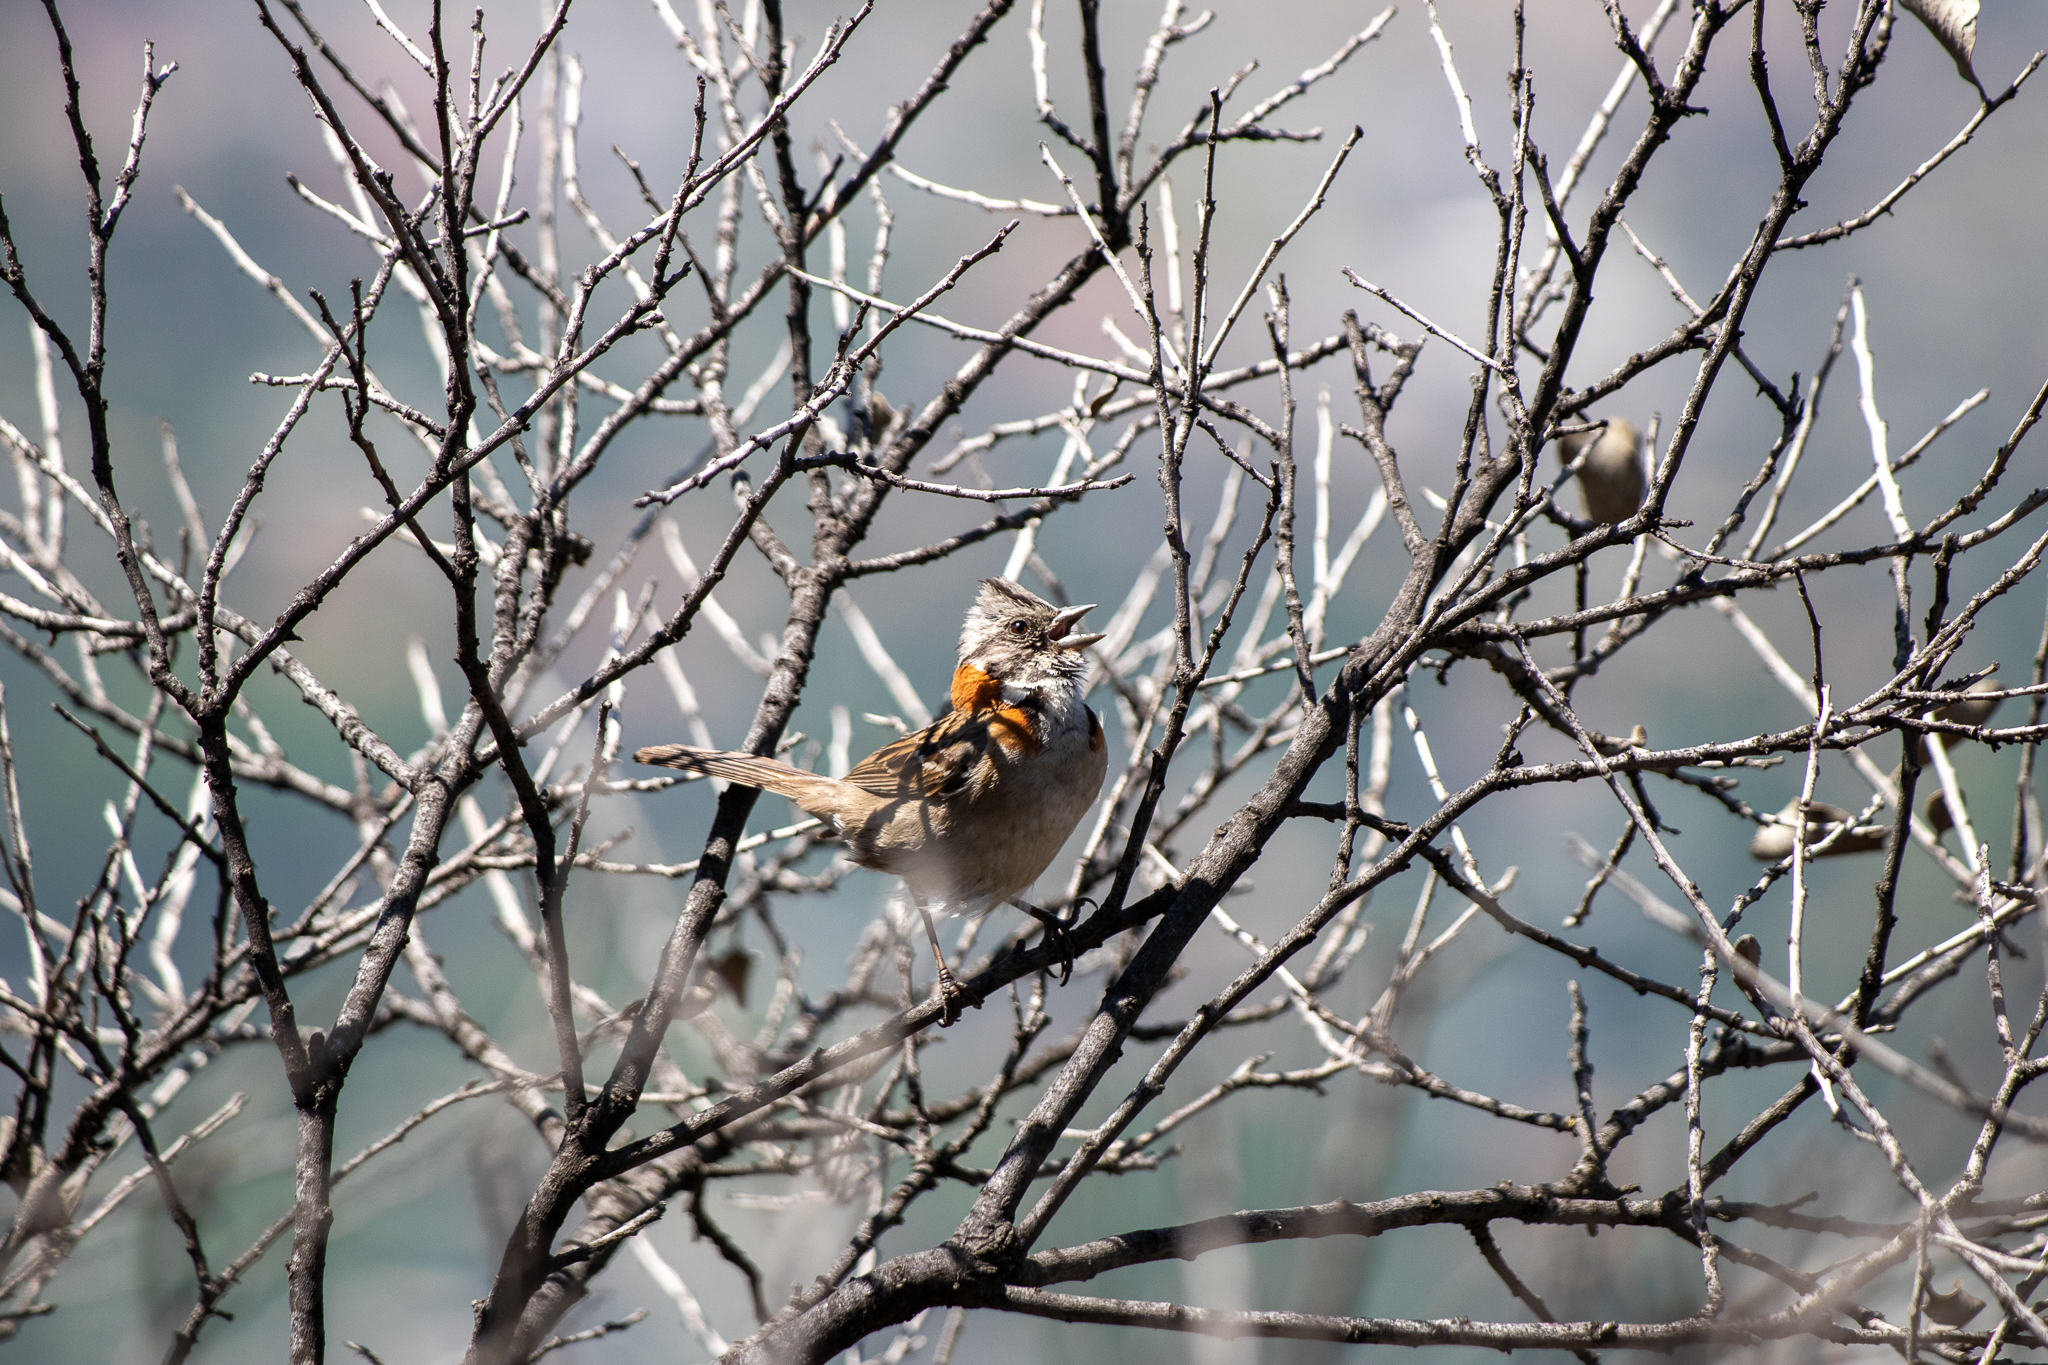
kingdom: Animalia
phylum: Chordata
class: Aves
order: Passeriformes
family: Passerellidae
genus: Zonotrichia
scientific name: Zonotrichia capensis
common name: Rufous-collared sparrow
